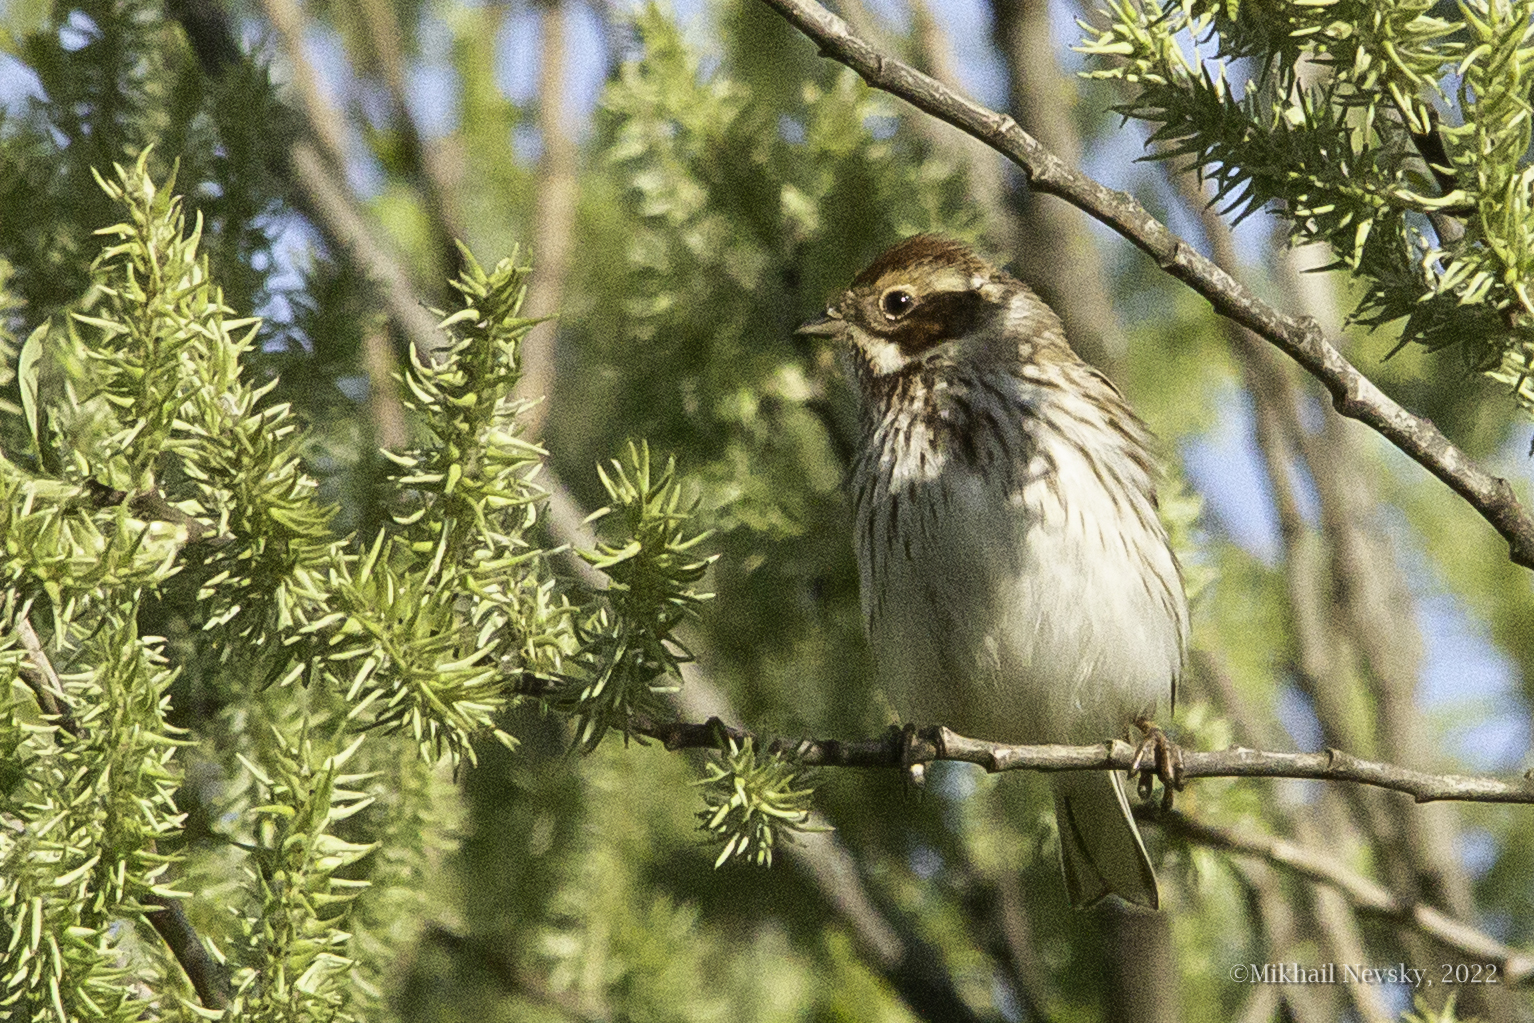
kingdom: Animalia
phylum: Chordata
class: Aves
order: Passeriformes
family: Emberizidae
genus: Emberiza
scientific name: Emberiza schoeniclus
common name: Reed bunting
